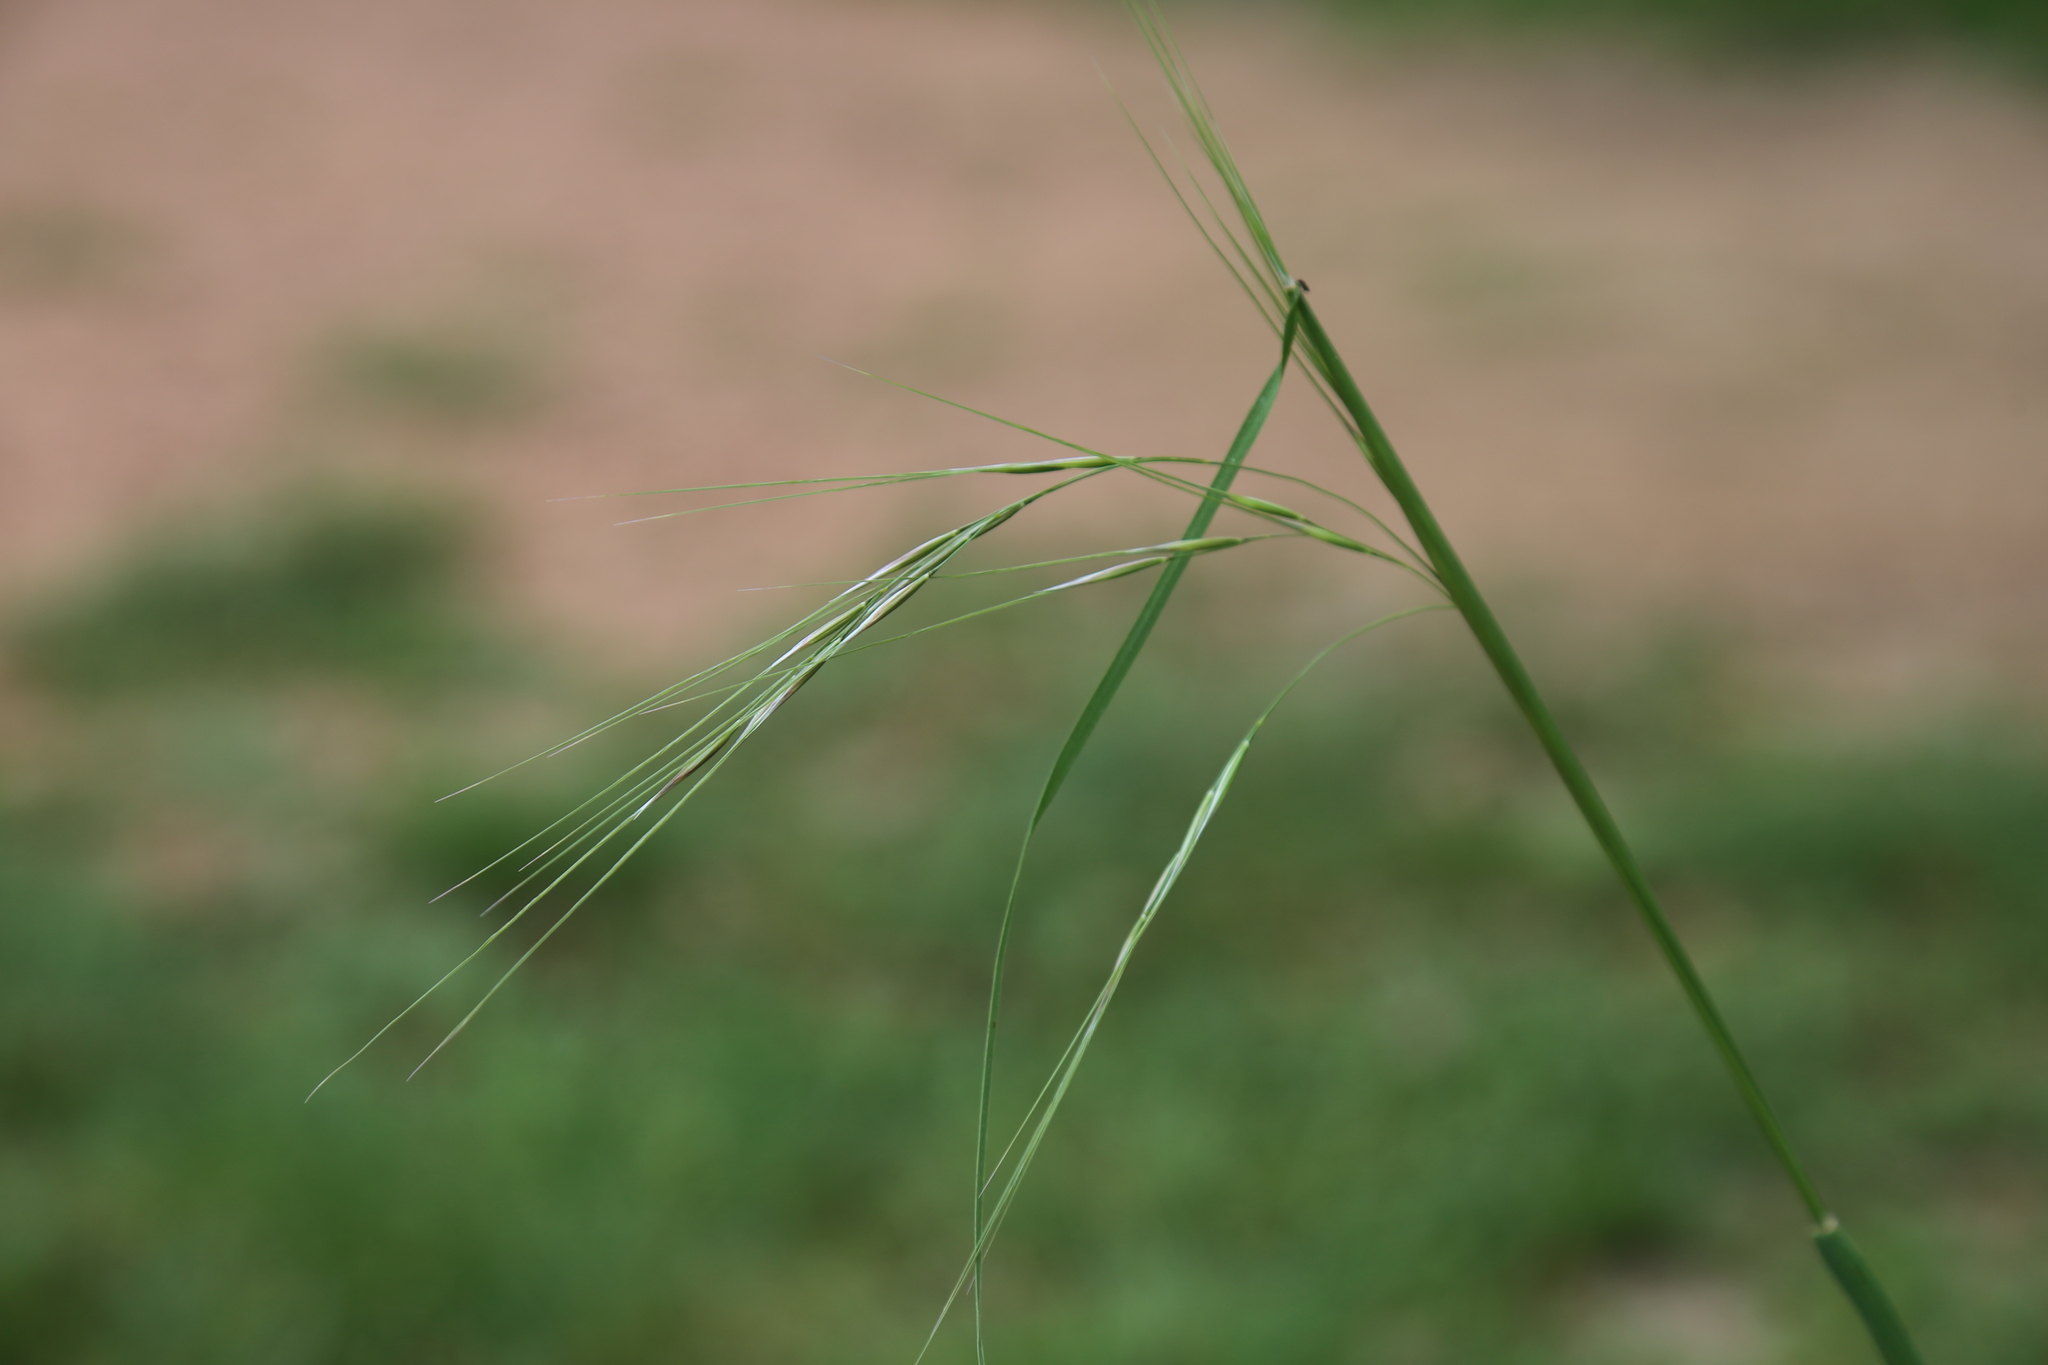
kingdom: Plantae
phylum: Tracheophyta
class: Liliopsida
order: Poales
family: Poaceae
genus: Nassella
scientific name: Nassella leucotricha
